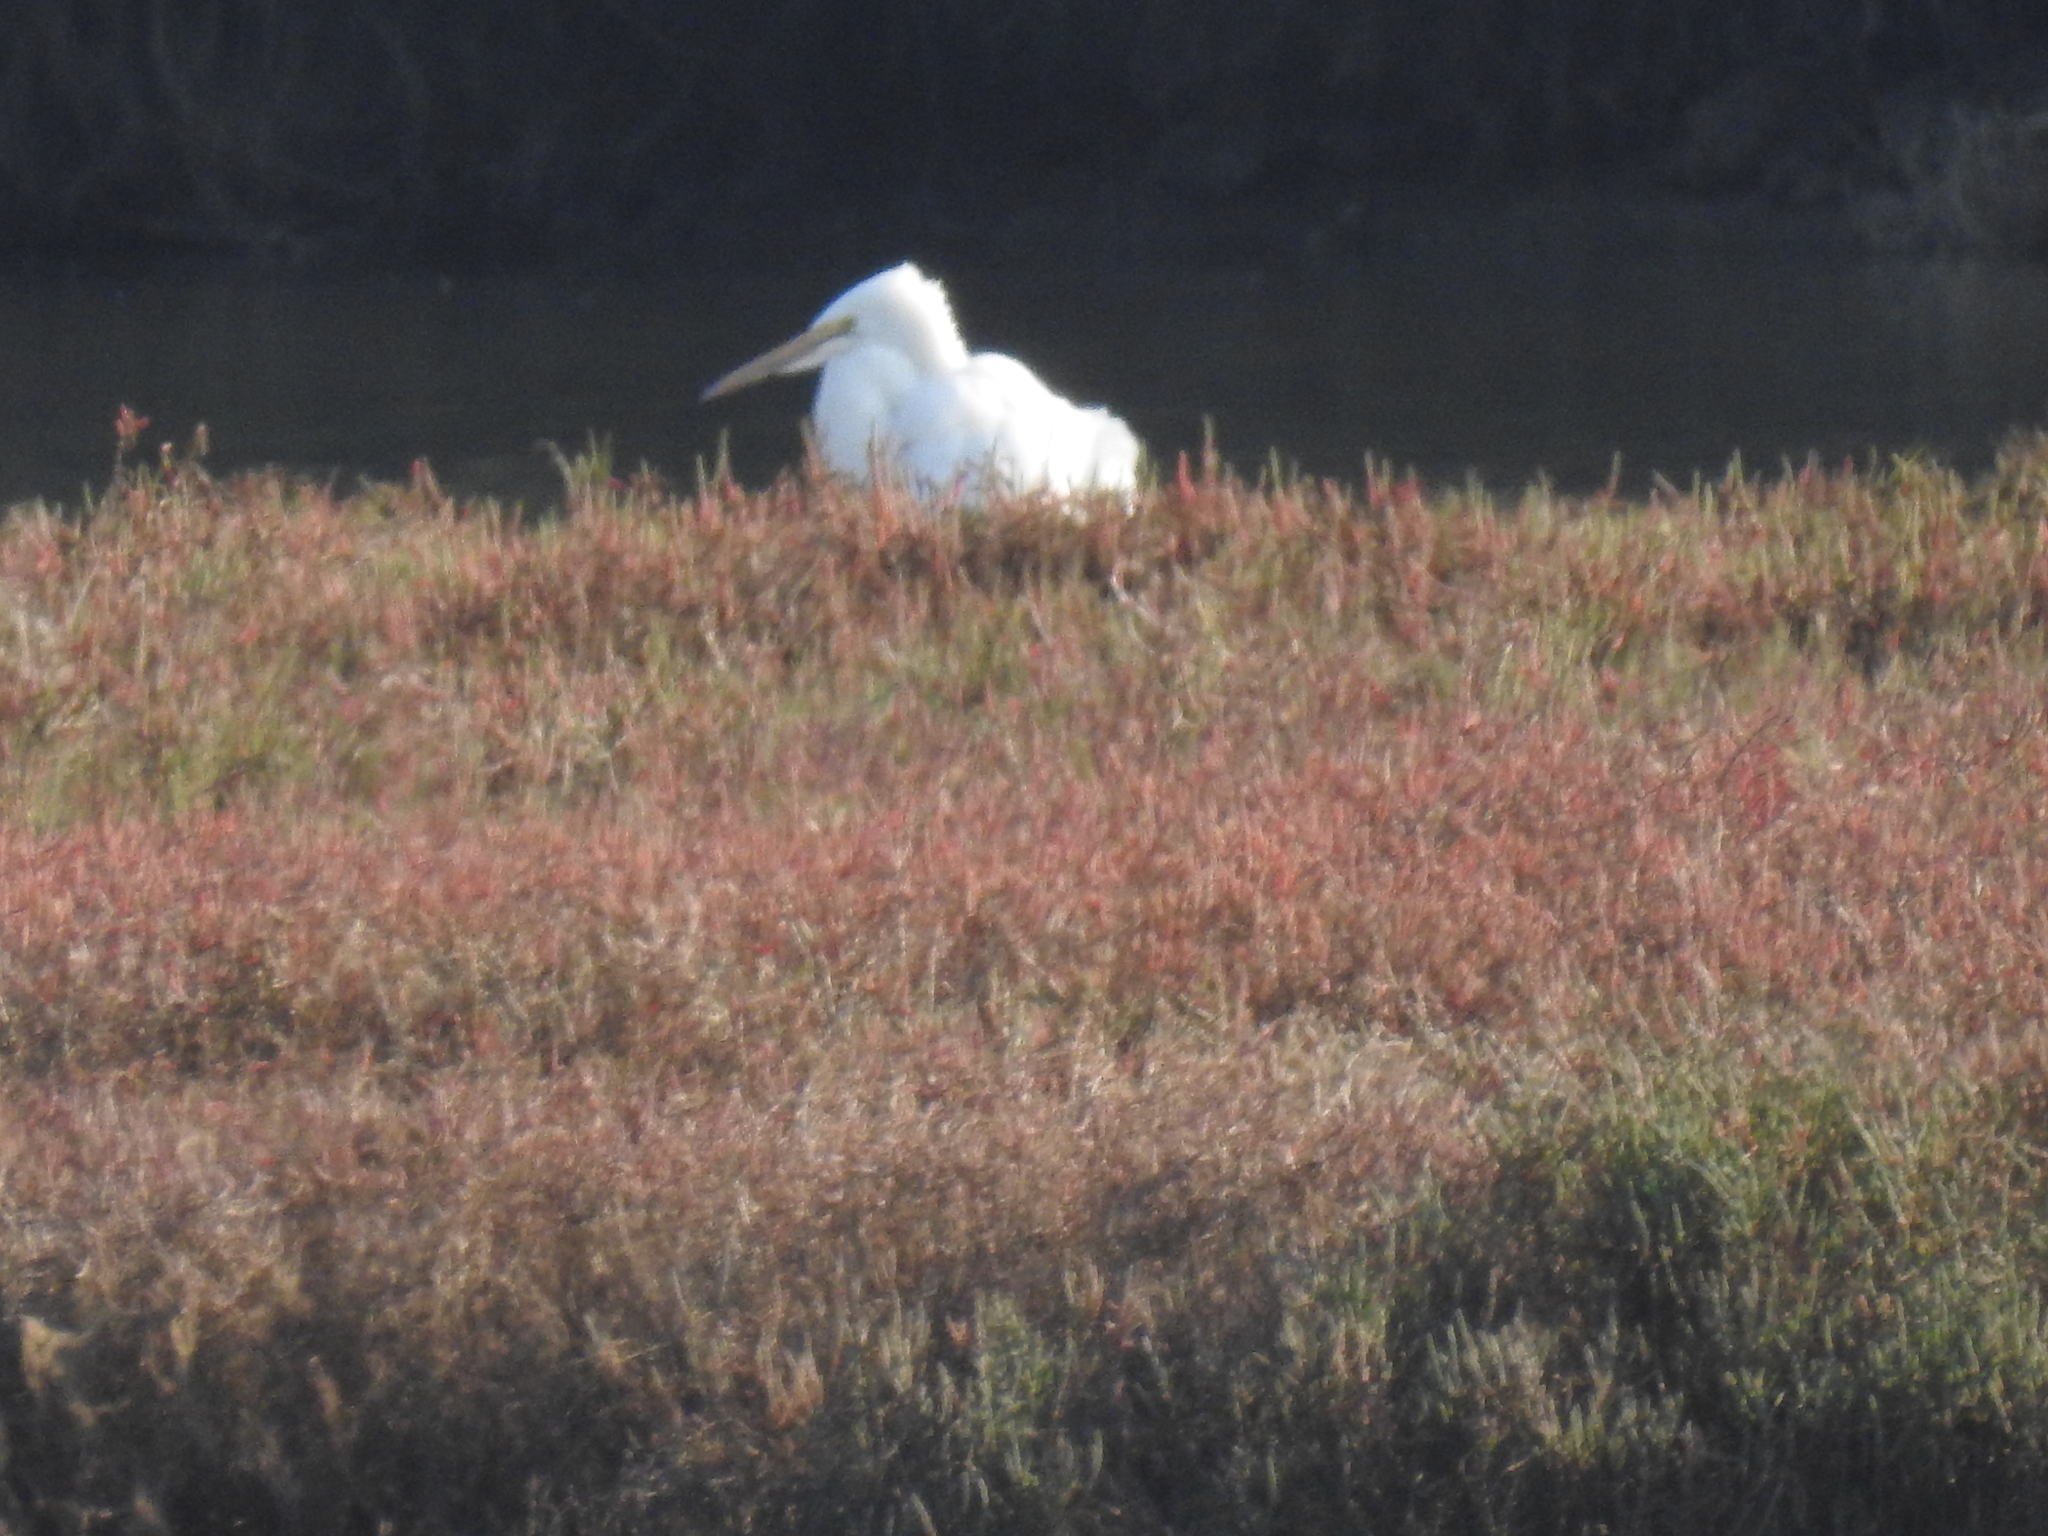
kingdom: Animalia
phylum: Chordata
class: Aves
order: Pelecaniformes
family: Ardeidae
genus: Ardea
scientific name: Ardea alba
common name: Great egret
